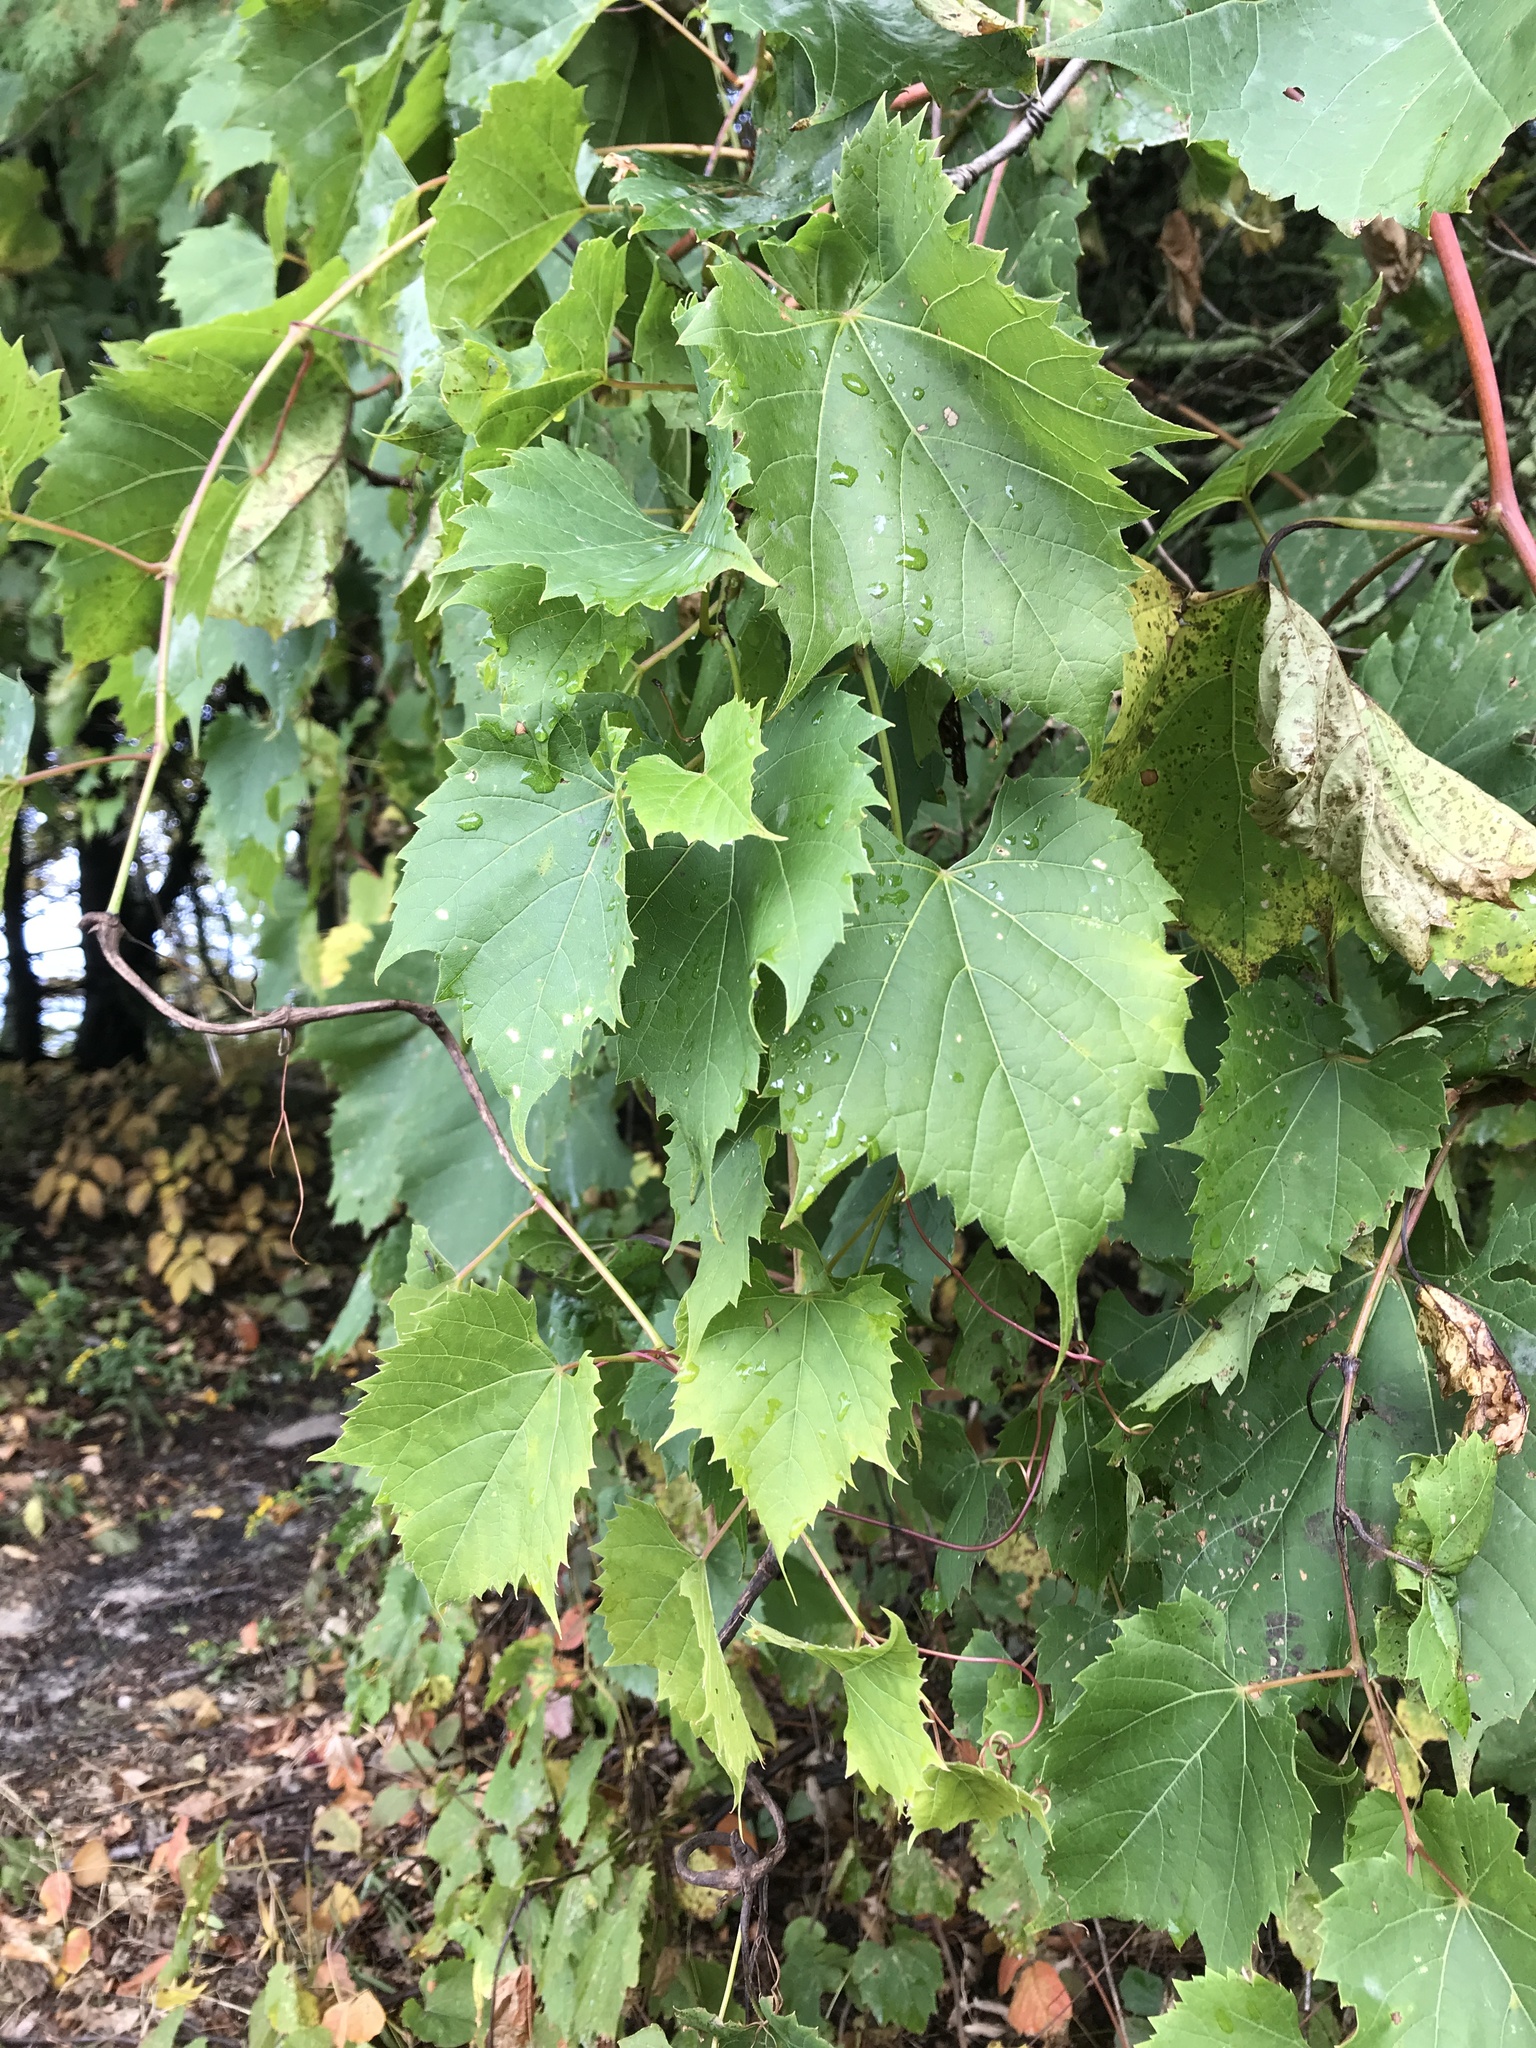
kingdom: Plantae
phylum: Tracheophyta
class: Magnoliopsida
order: Vitales
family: Vitaceae
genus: Vitis
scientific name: Vitis riparia
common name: Frost grape
